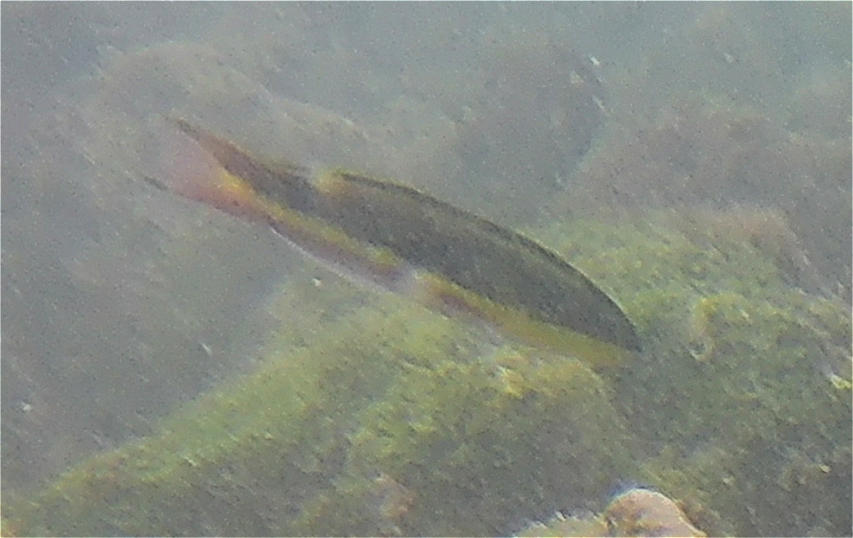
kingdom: Animalia
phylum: Chordata
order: Perciformes
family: Labridae
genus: Thalassoma
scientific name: Thalassoma lucasanum
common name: Cortez rainbow wrasse
